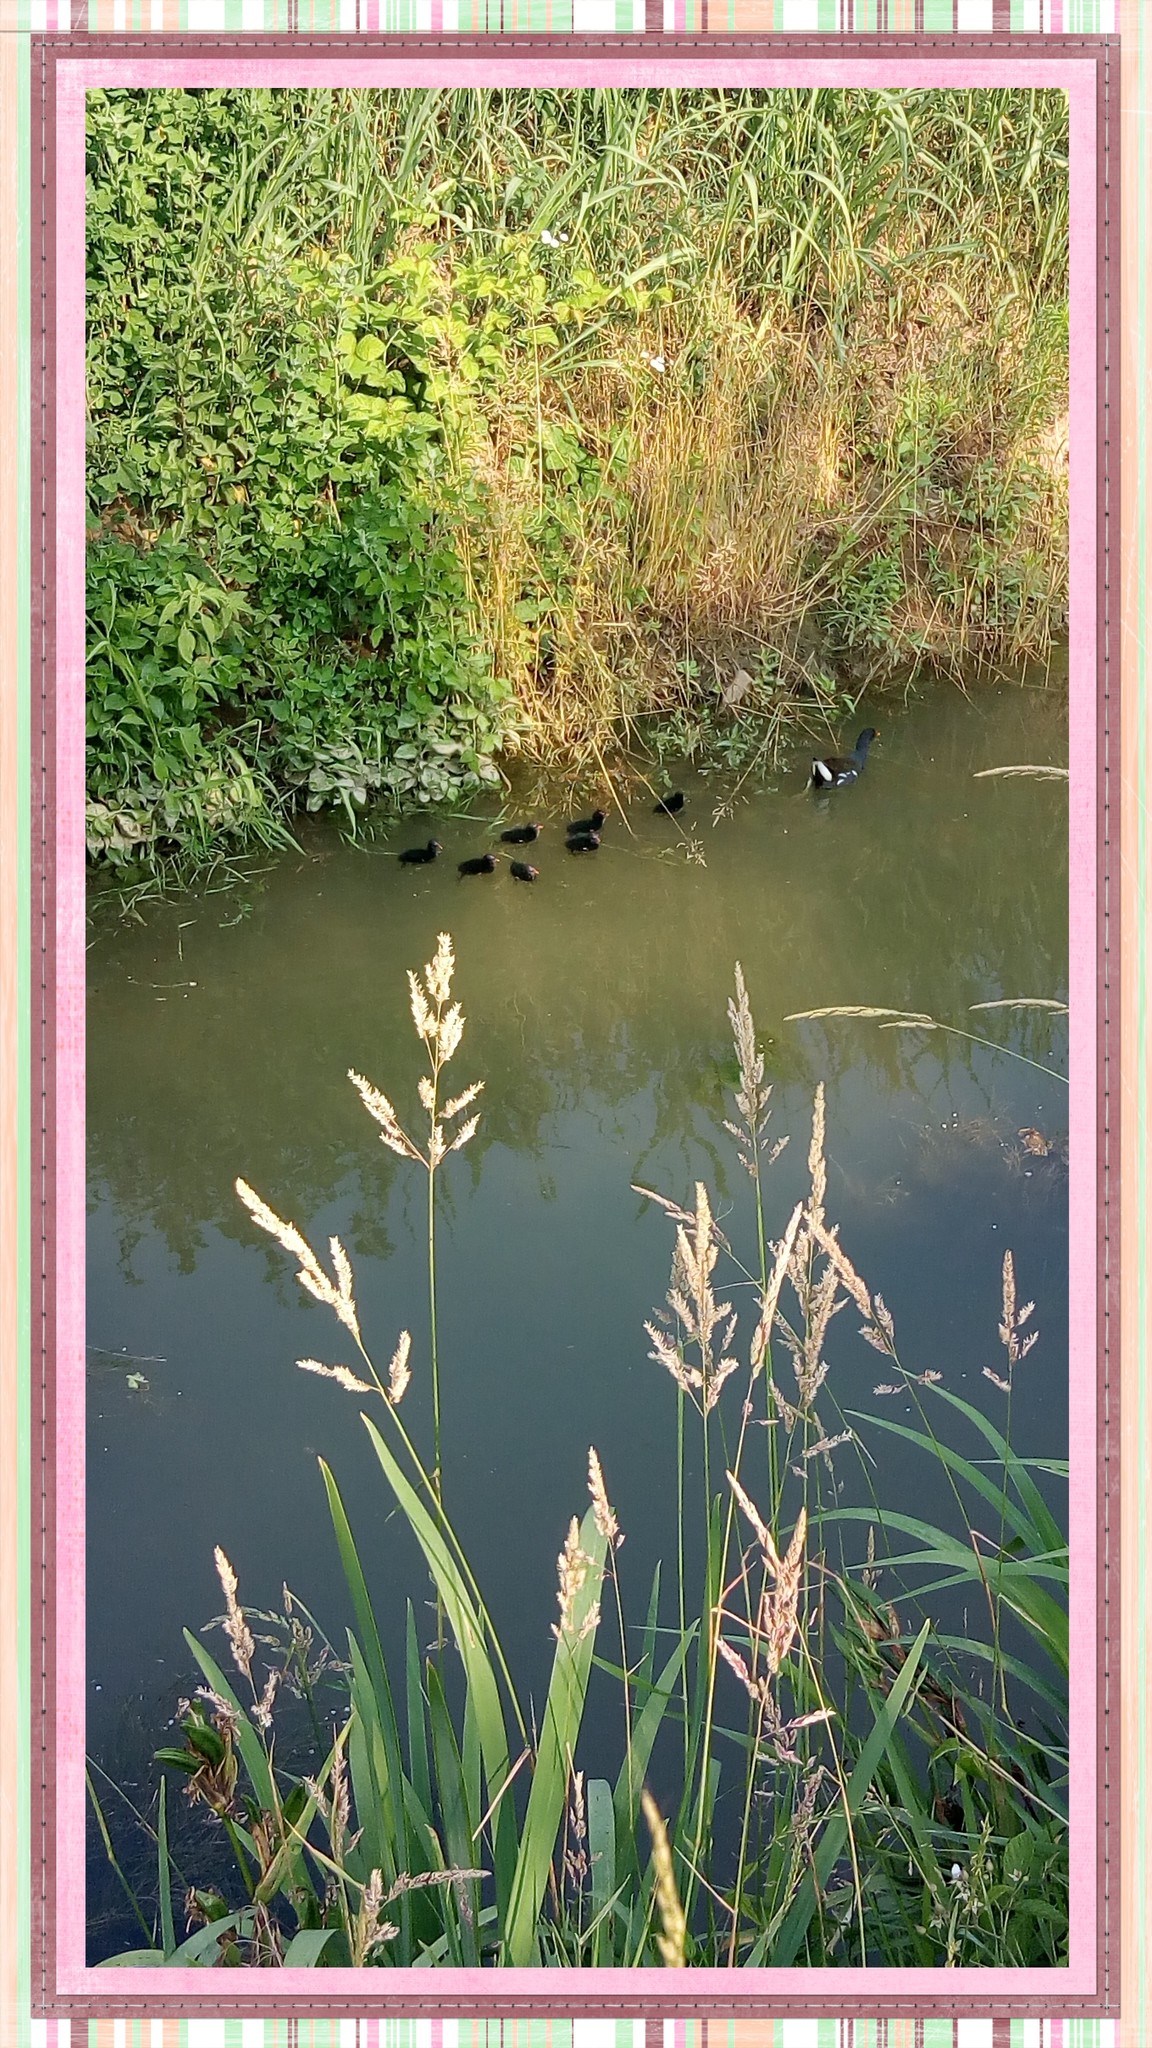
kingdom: Animalia
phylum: Chordata
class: Aves
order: Gruiformes
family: Rallidae
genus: Gallinula
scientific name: Gallinula chloropus
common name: Common moorhen
